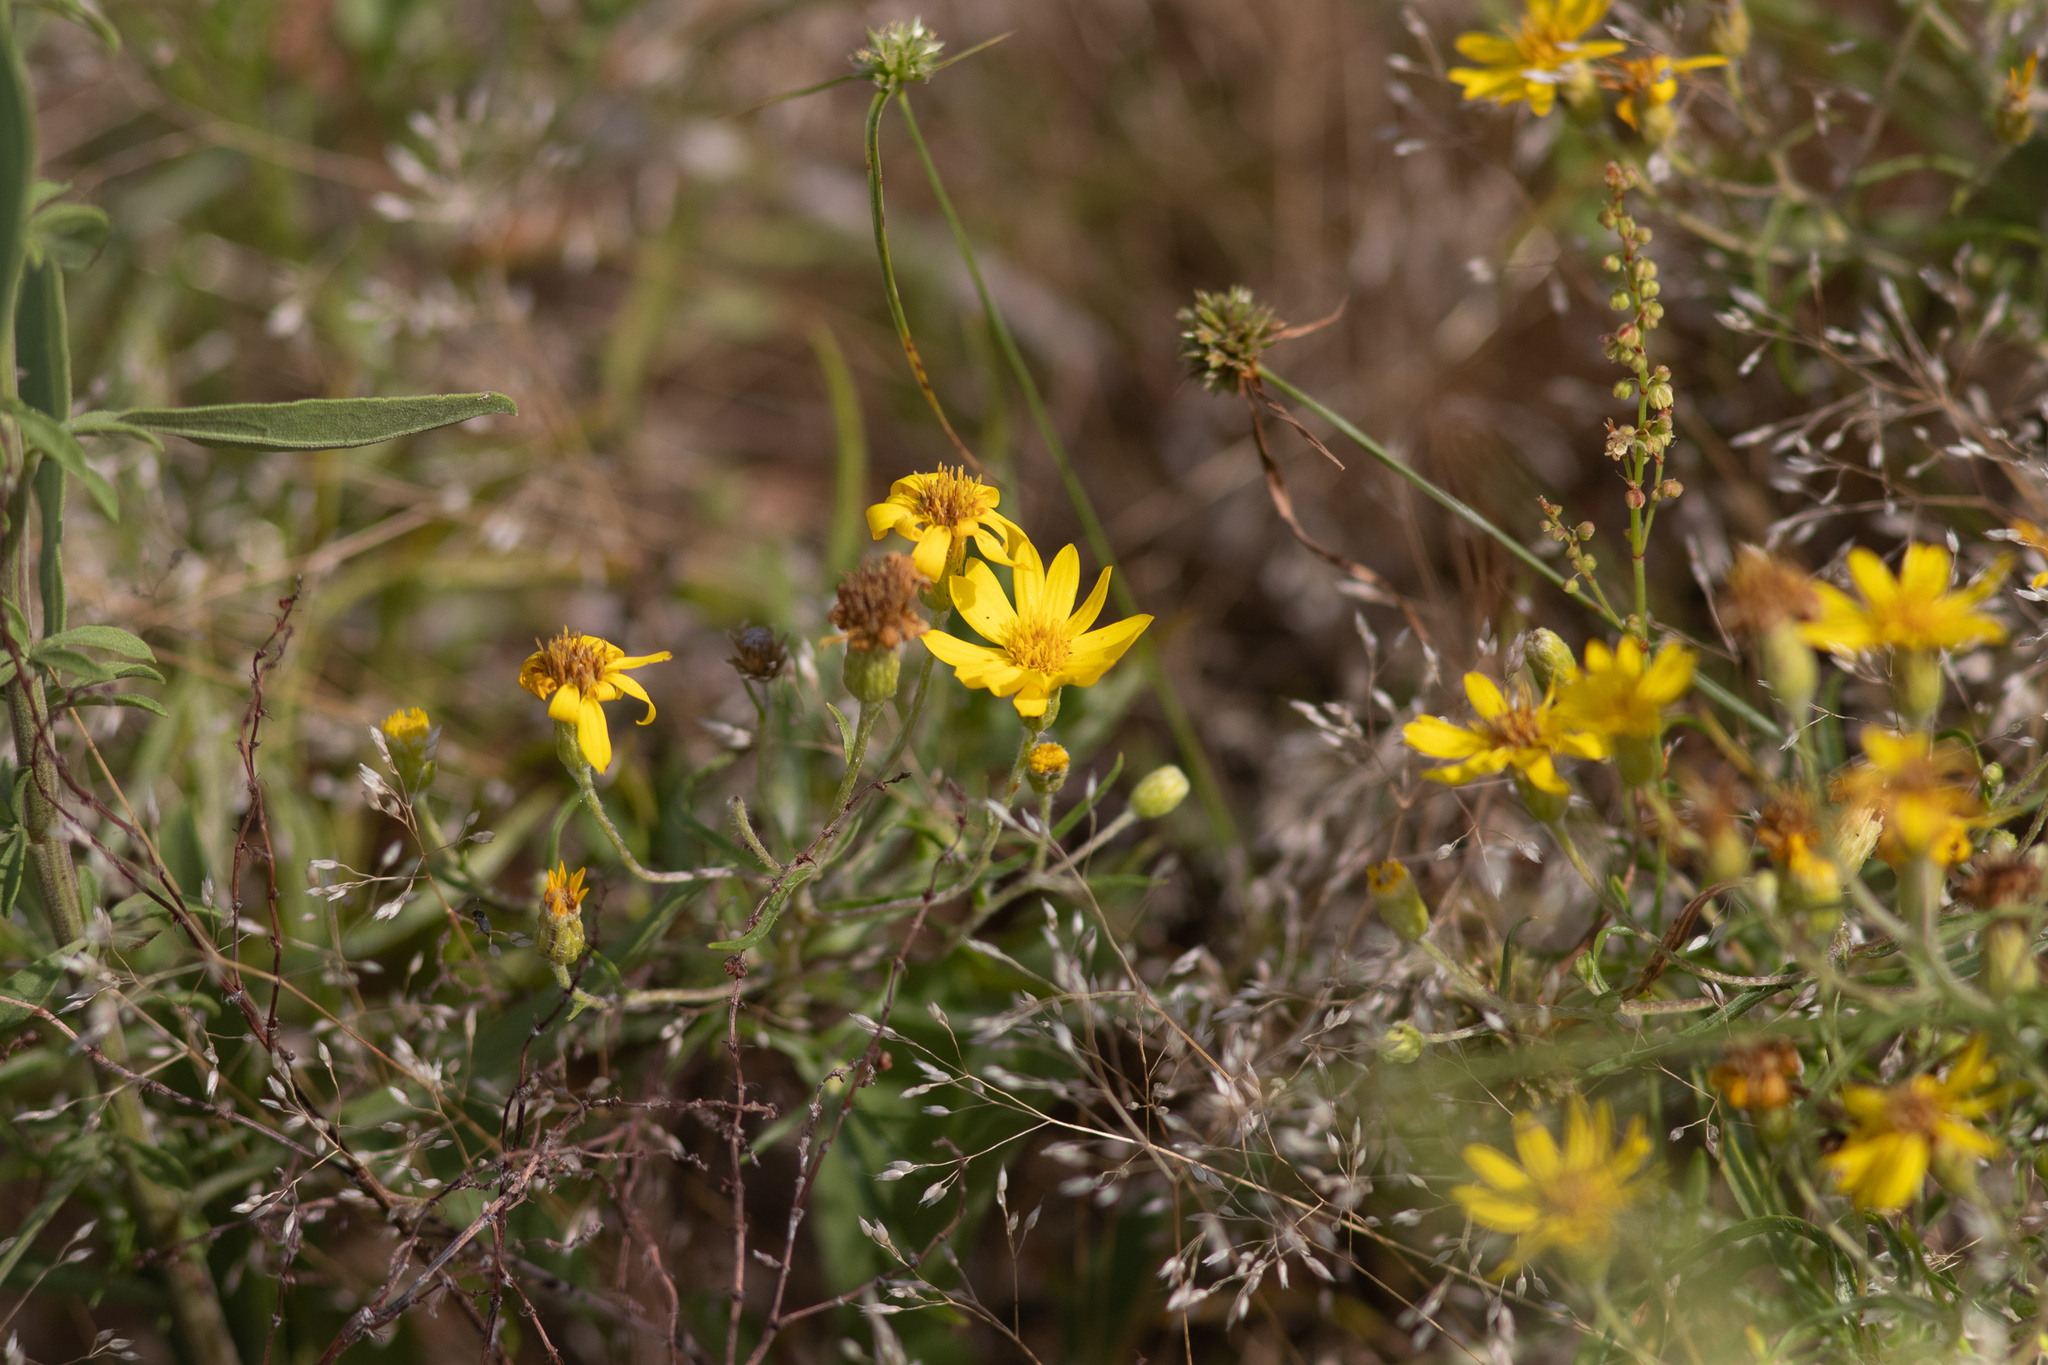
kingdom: Plantae
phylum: Tracheophyta
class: Magnoliopsida
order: Asterales
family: Asteraceae
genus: Pityopsis
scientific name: Pityopsis falcata
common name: Sickle-leaved goldenaster
